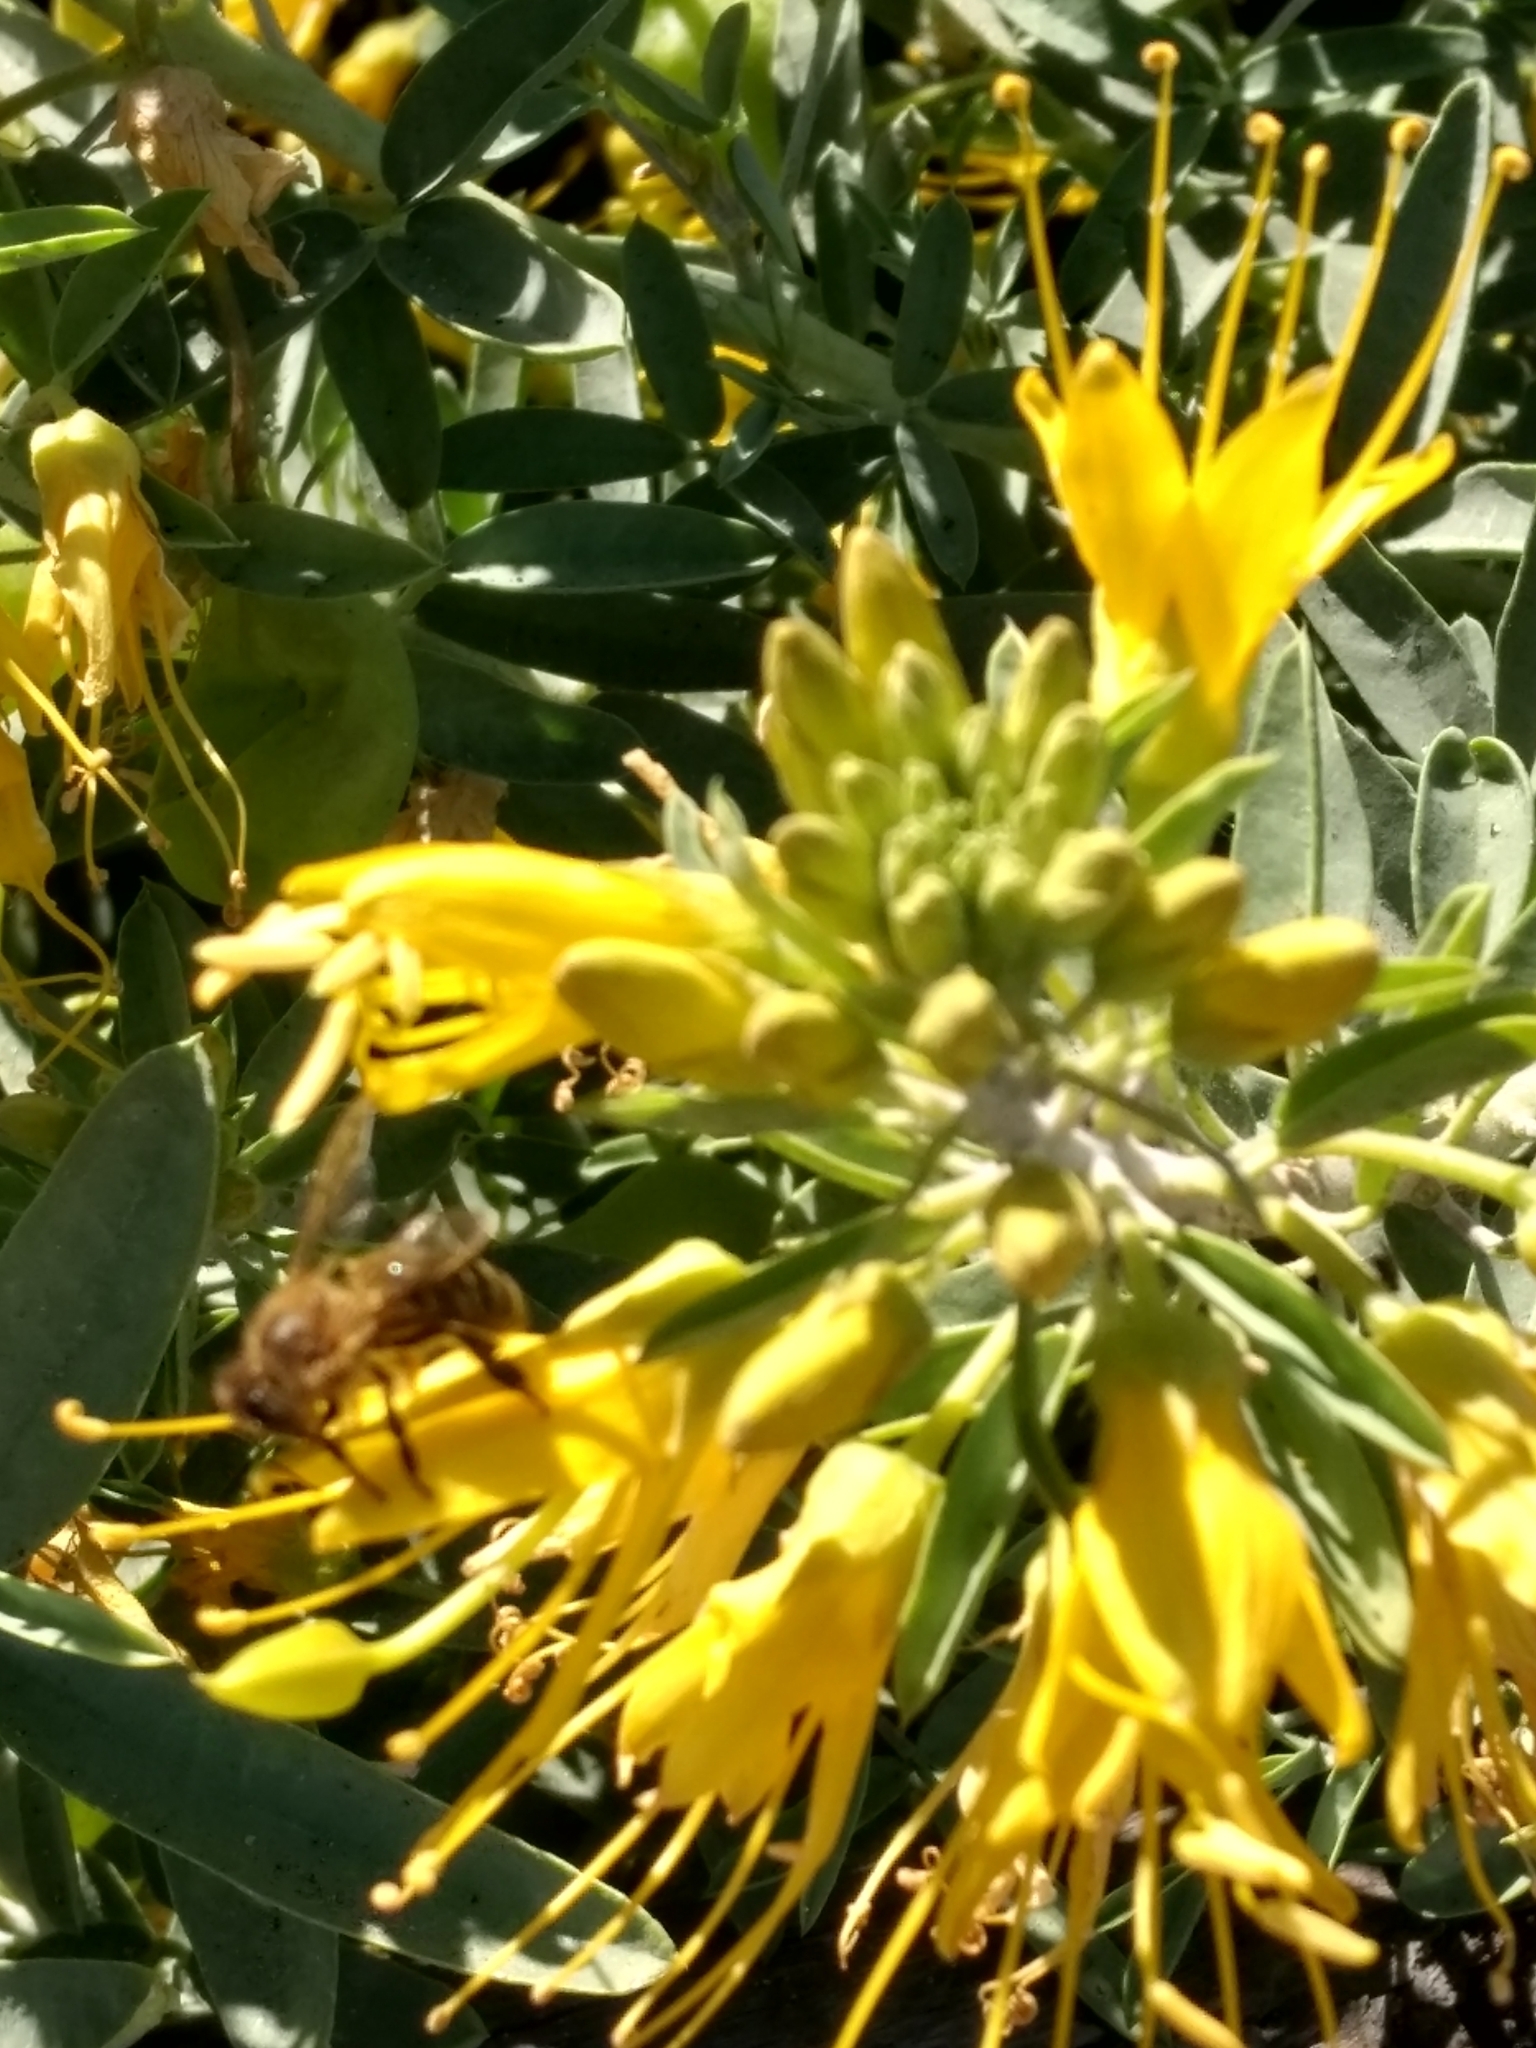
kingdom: Animalia
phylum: Arthropoda
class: Insecta
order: Hymenoptera
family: Apidae
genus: Apis
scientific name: Apis mellifera
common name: Honey bee
